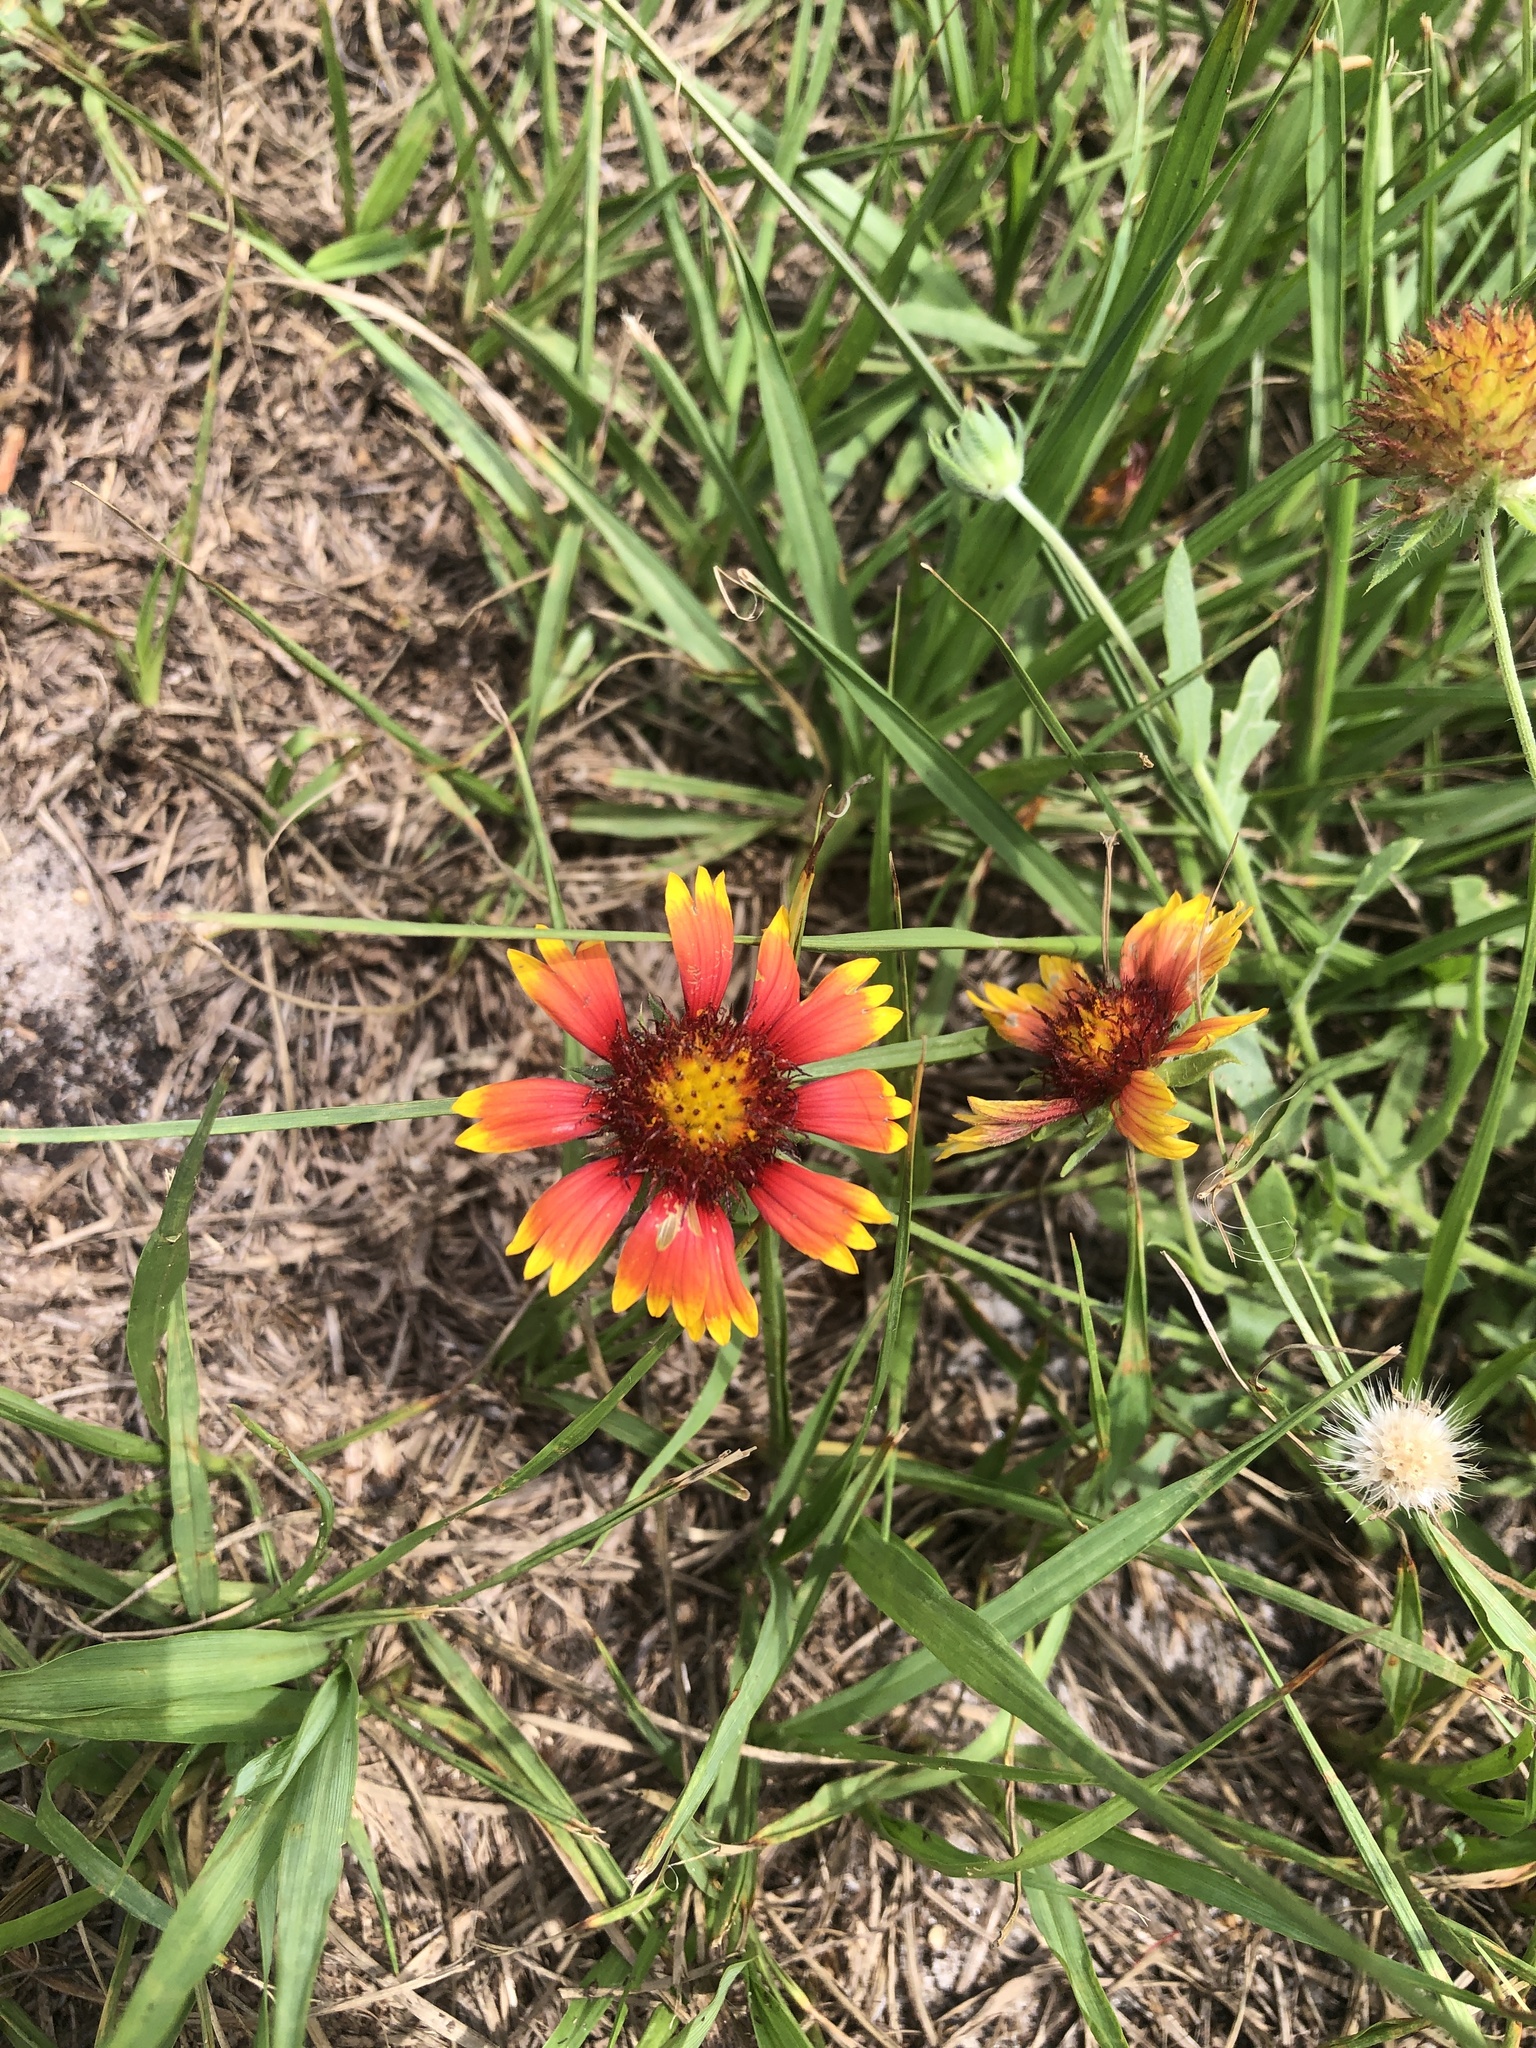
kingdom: Plantae
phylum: Tracheophyta
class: Magnoliopsida
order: Asterales
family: Asteraceae
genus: Gaillardia
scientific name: Gaillardia pulchella
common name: Firewheel
